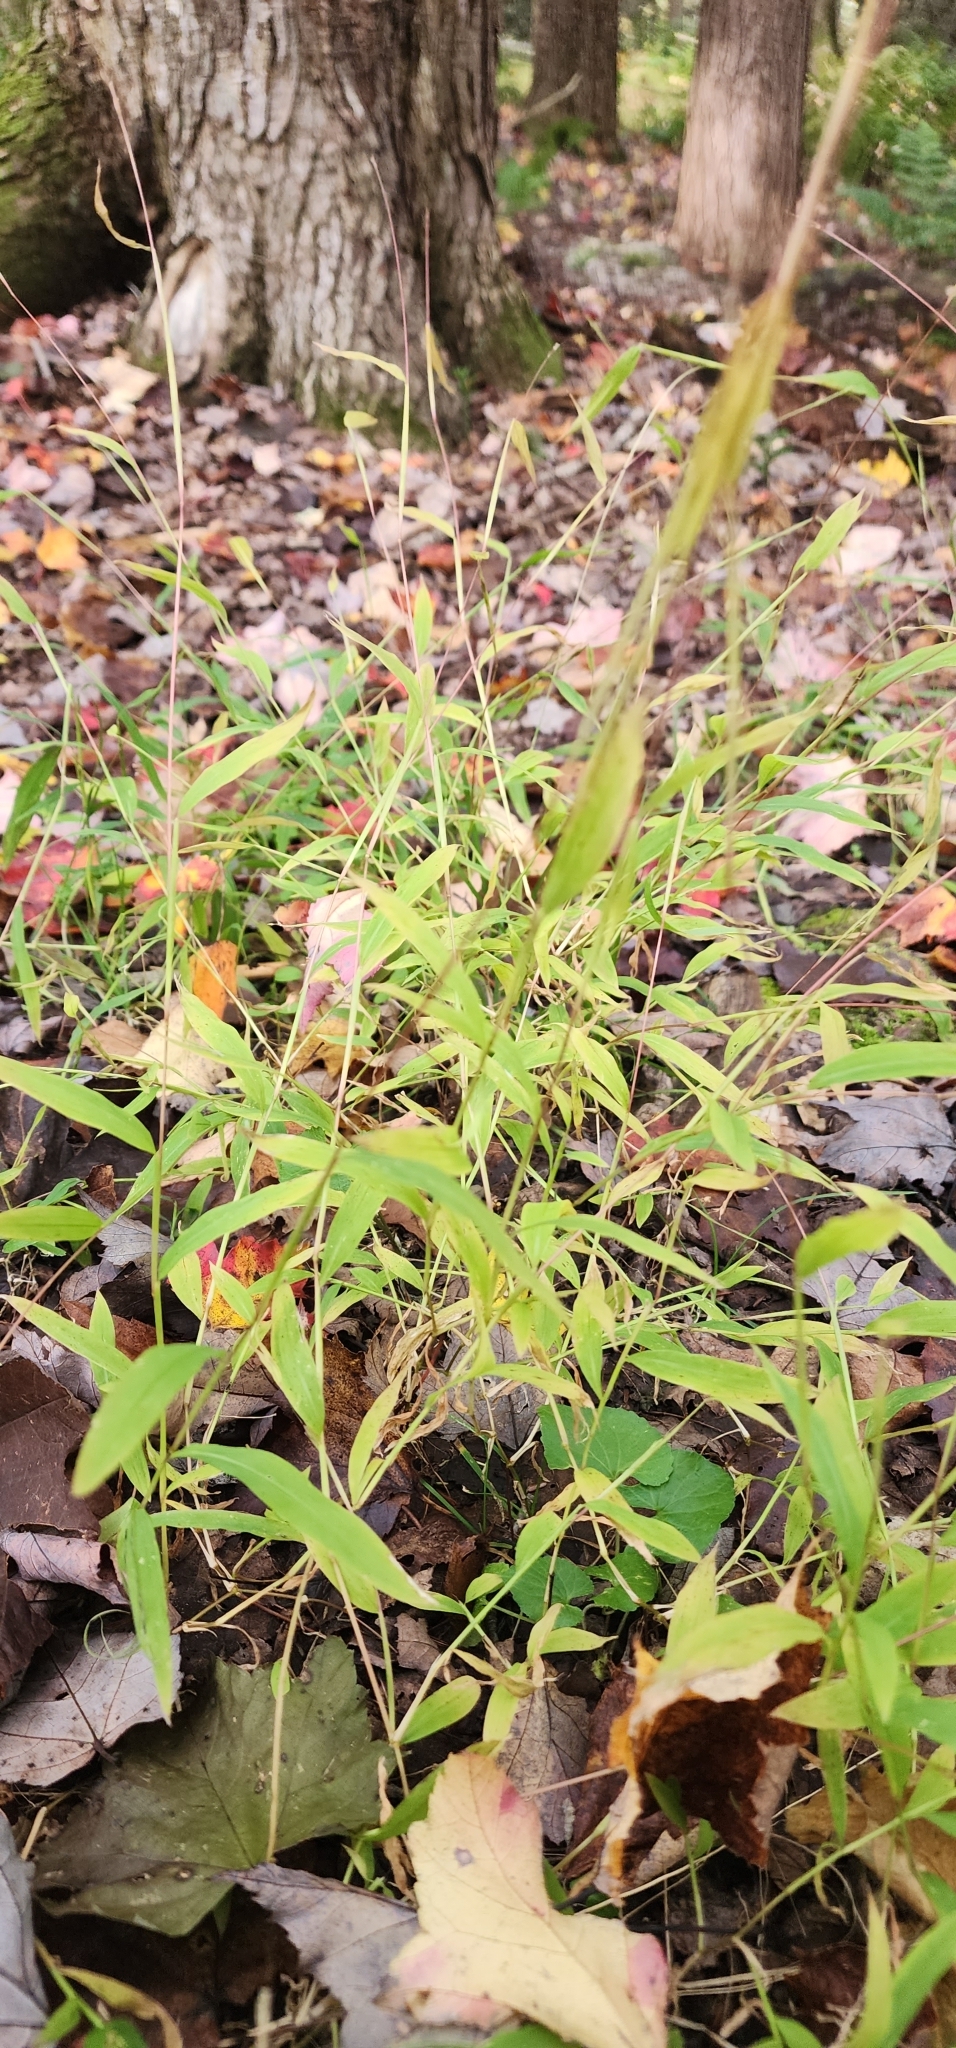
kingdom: Plantae
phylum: Tracheophyta
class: Liliopsida
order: Poales
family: Poaceae
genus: Microstegium
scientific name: Microstegium vimineum
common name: Japanese stiltgrass
